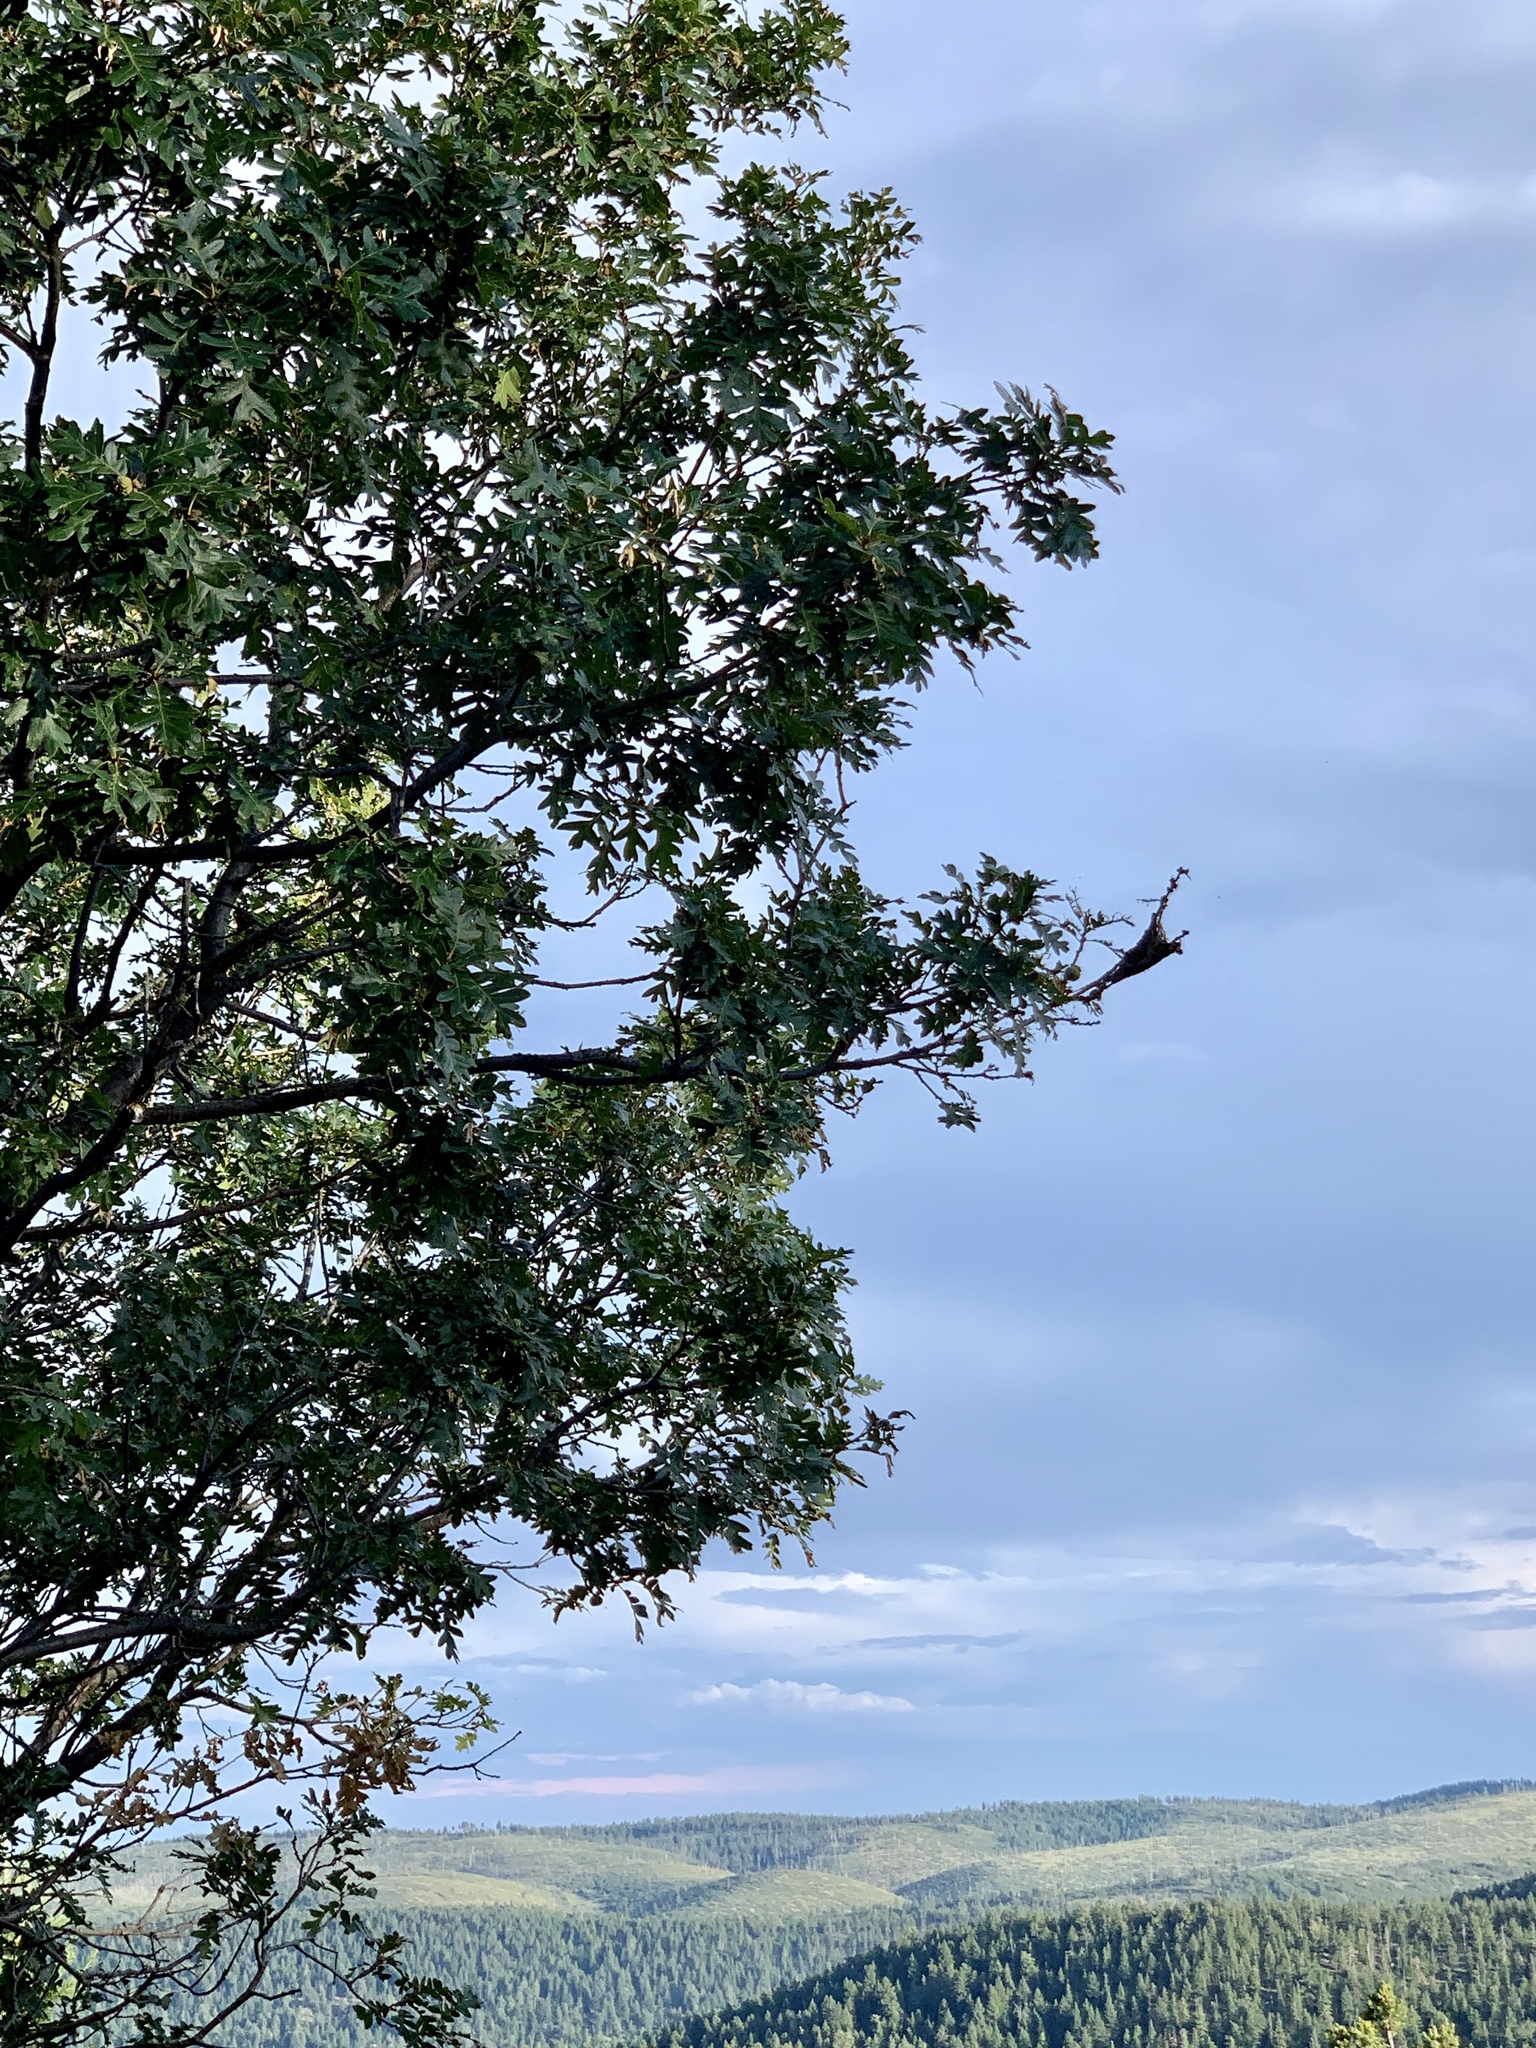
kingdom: Plantae
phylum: Tracheophyta
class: Magnoliopsida
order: Fagales
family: Fagaceae
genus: Quercus
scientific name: Quercus gambelii
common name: Gambel oak
